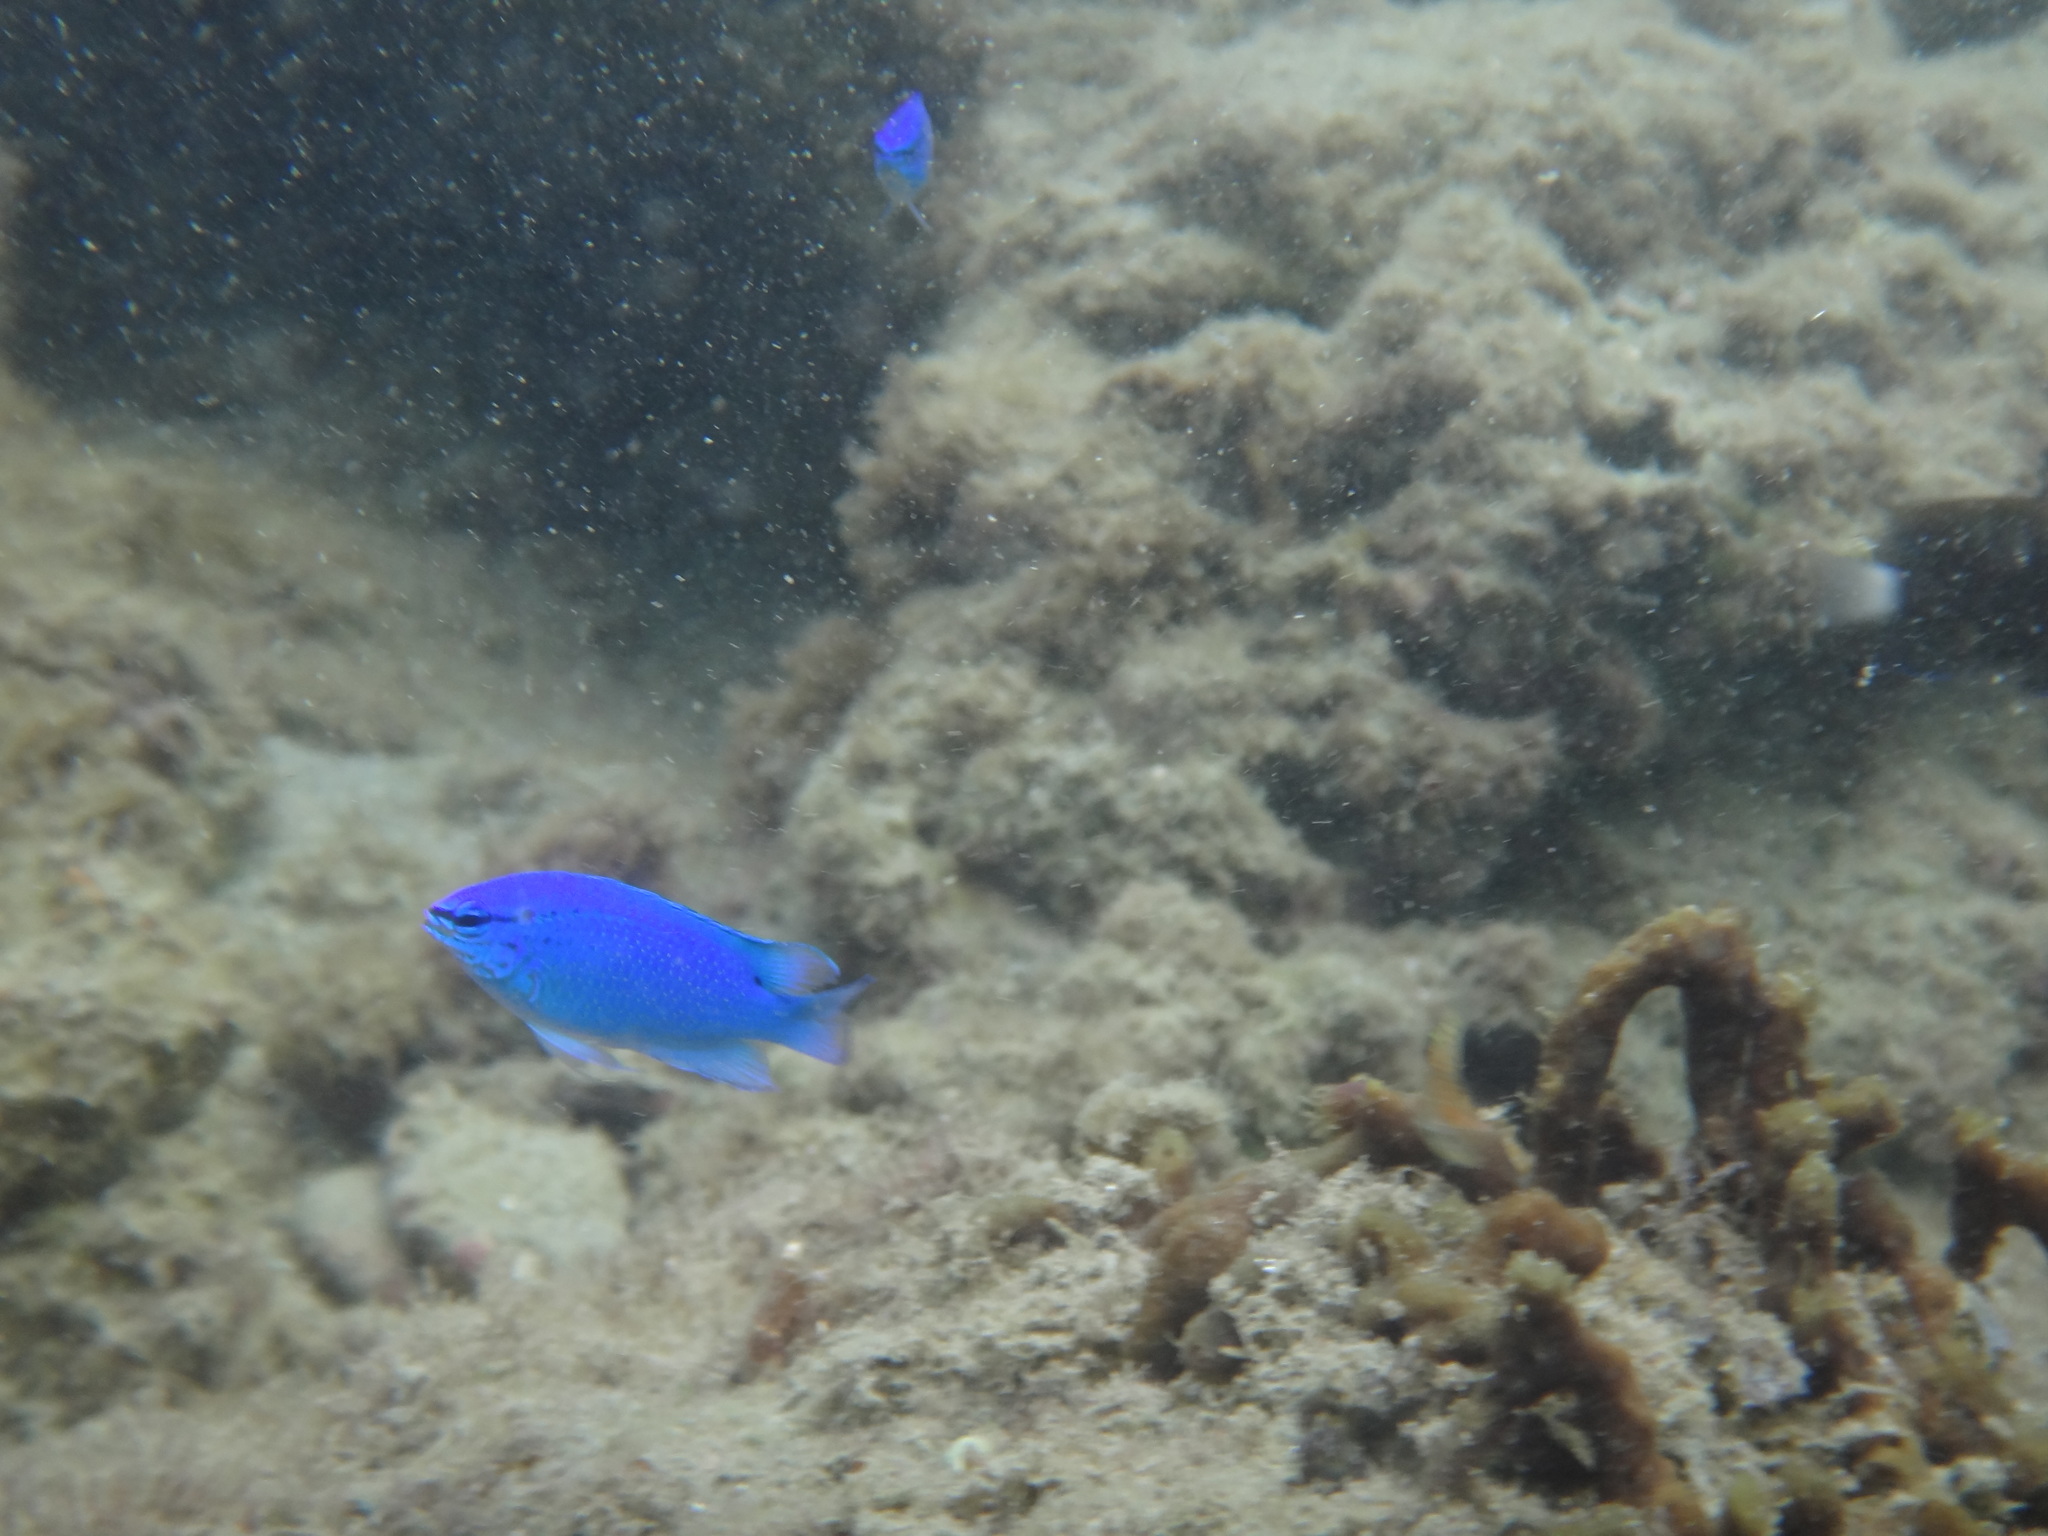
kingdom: Animalia
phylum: Chordata
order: Perciformes
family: Pomacentridae
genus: Chrysiptera
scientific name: Chrysiptera cyanea
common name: Blue devil
